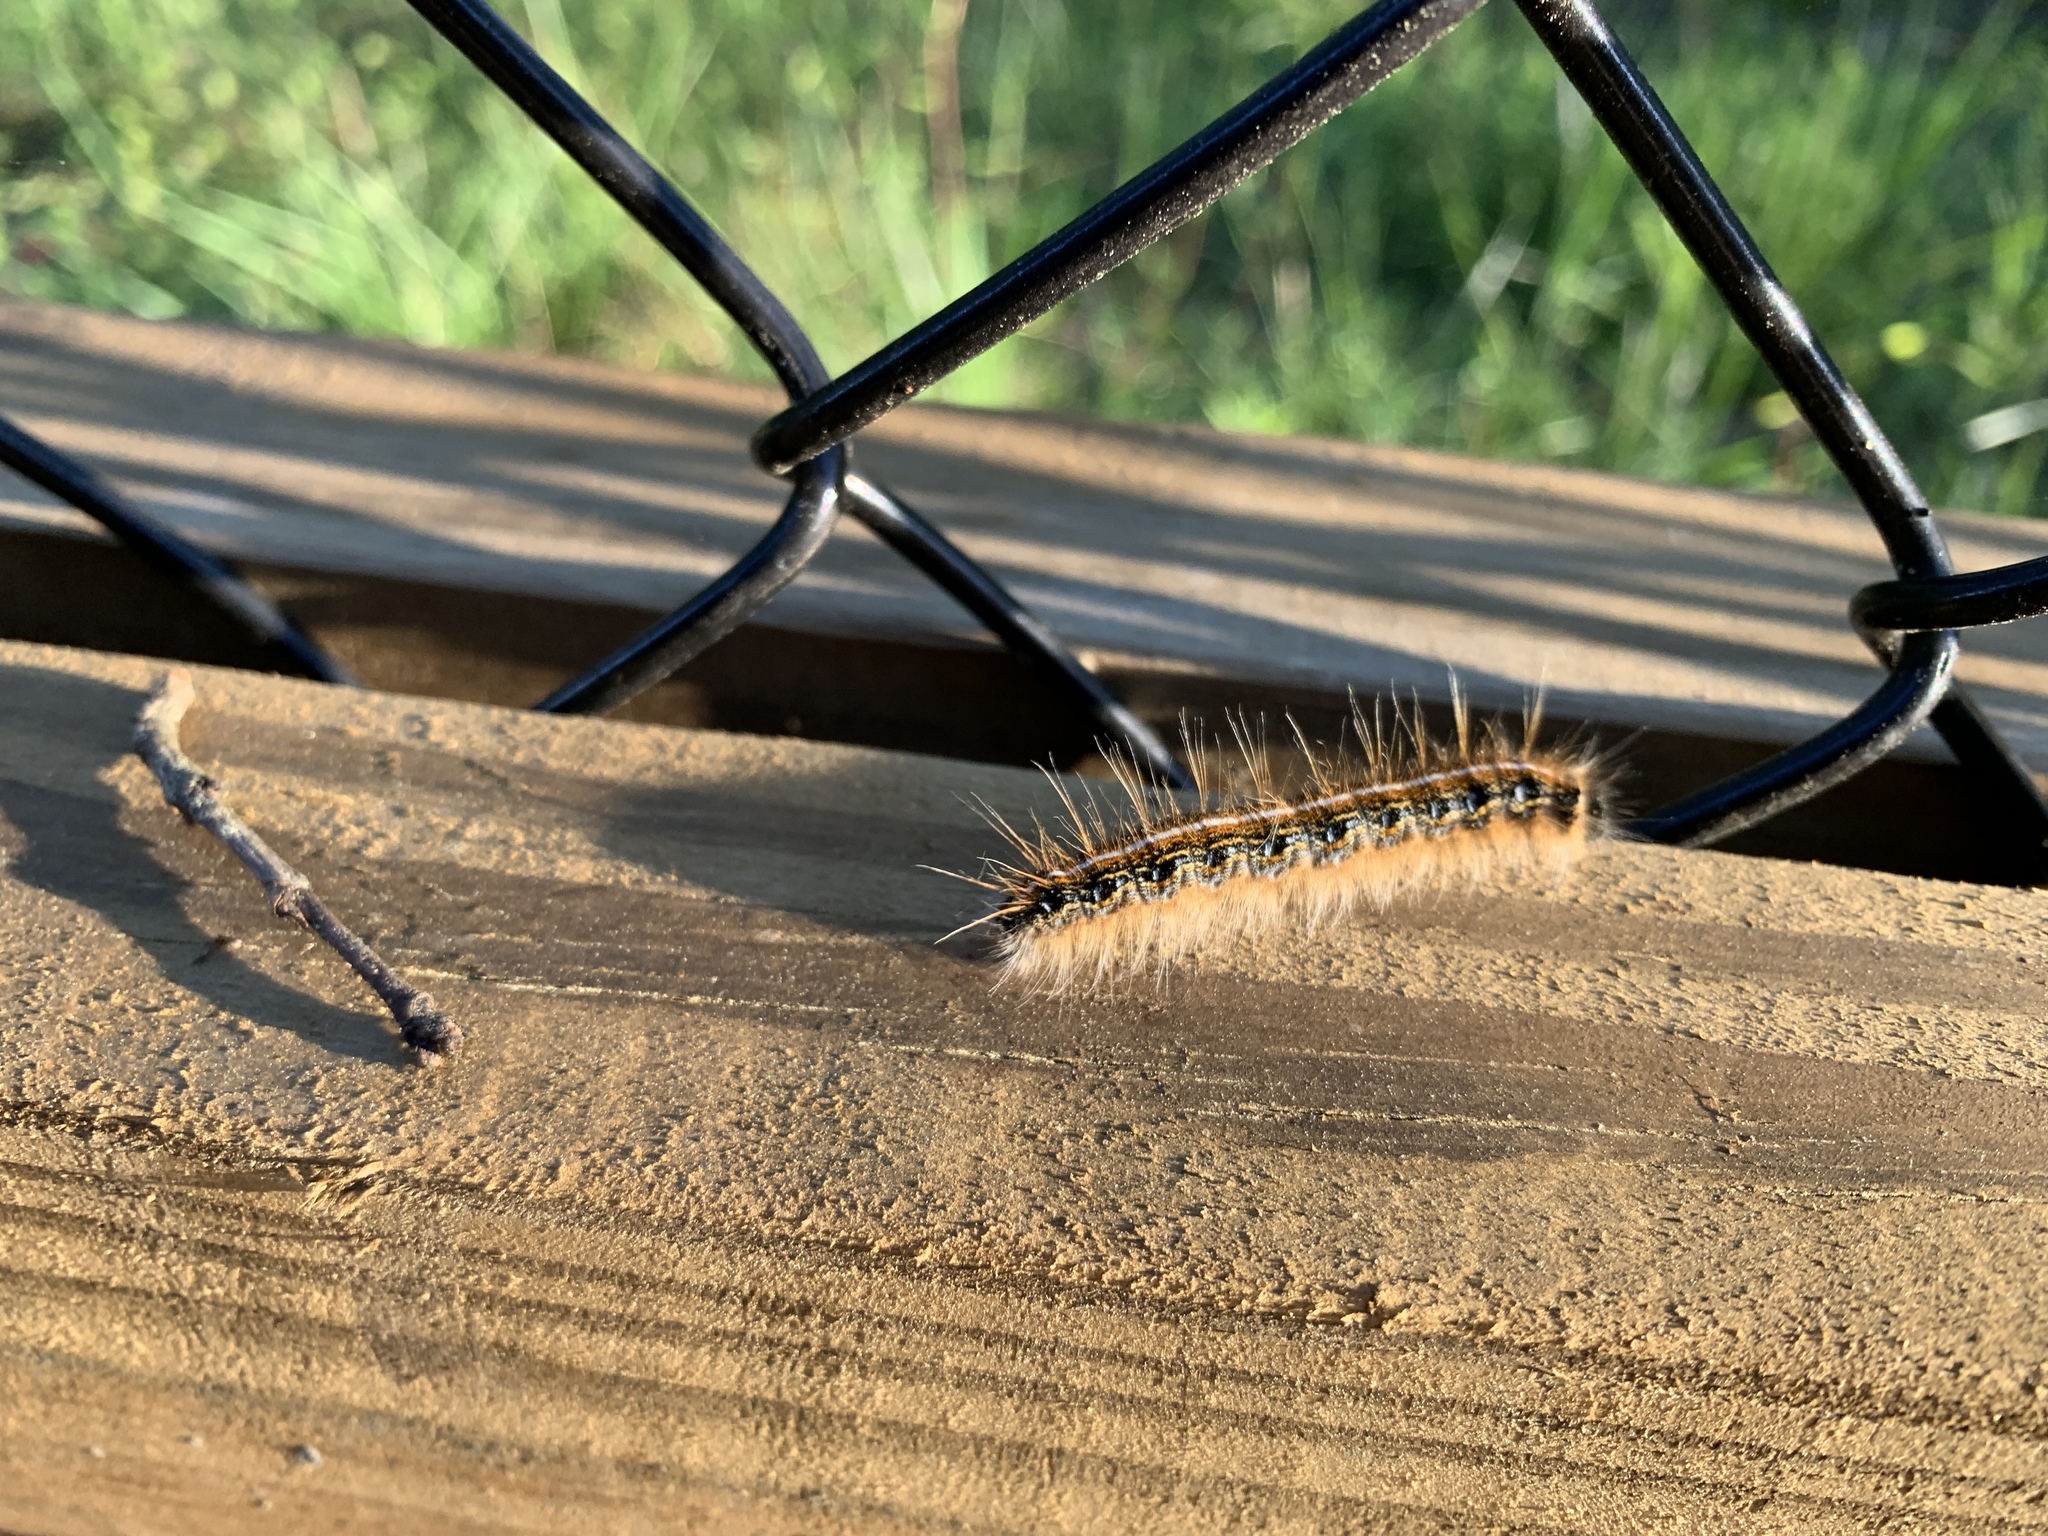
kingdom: Animalia
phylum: Arthropoda
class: Insecta
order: Lepidoptera
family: Lasiocampidae
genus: Malacosoma
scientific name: Malacosoma americana
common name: Eastern tent caterpillar moth
